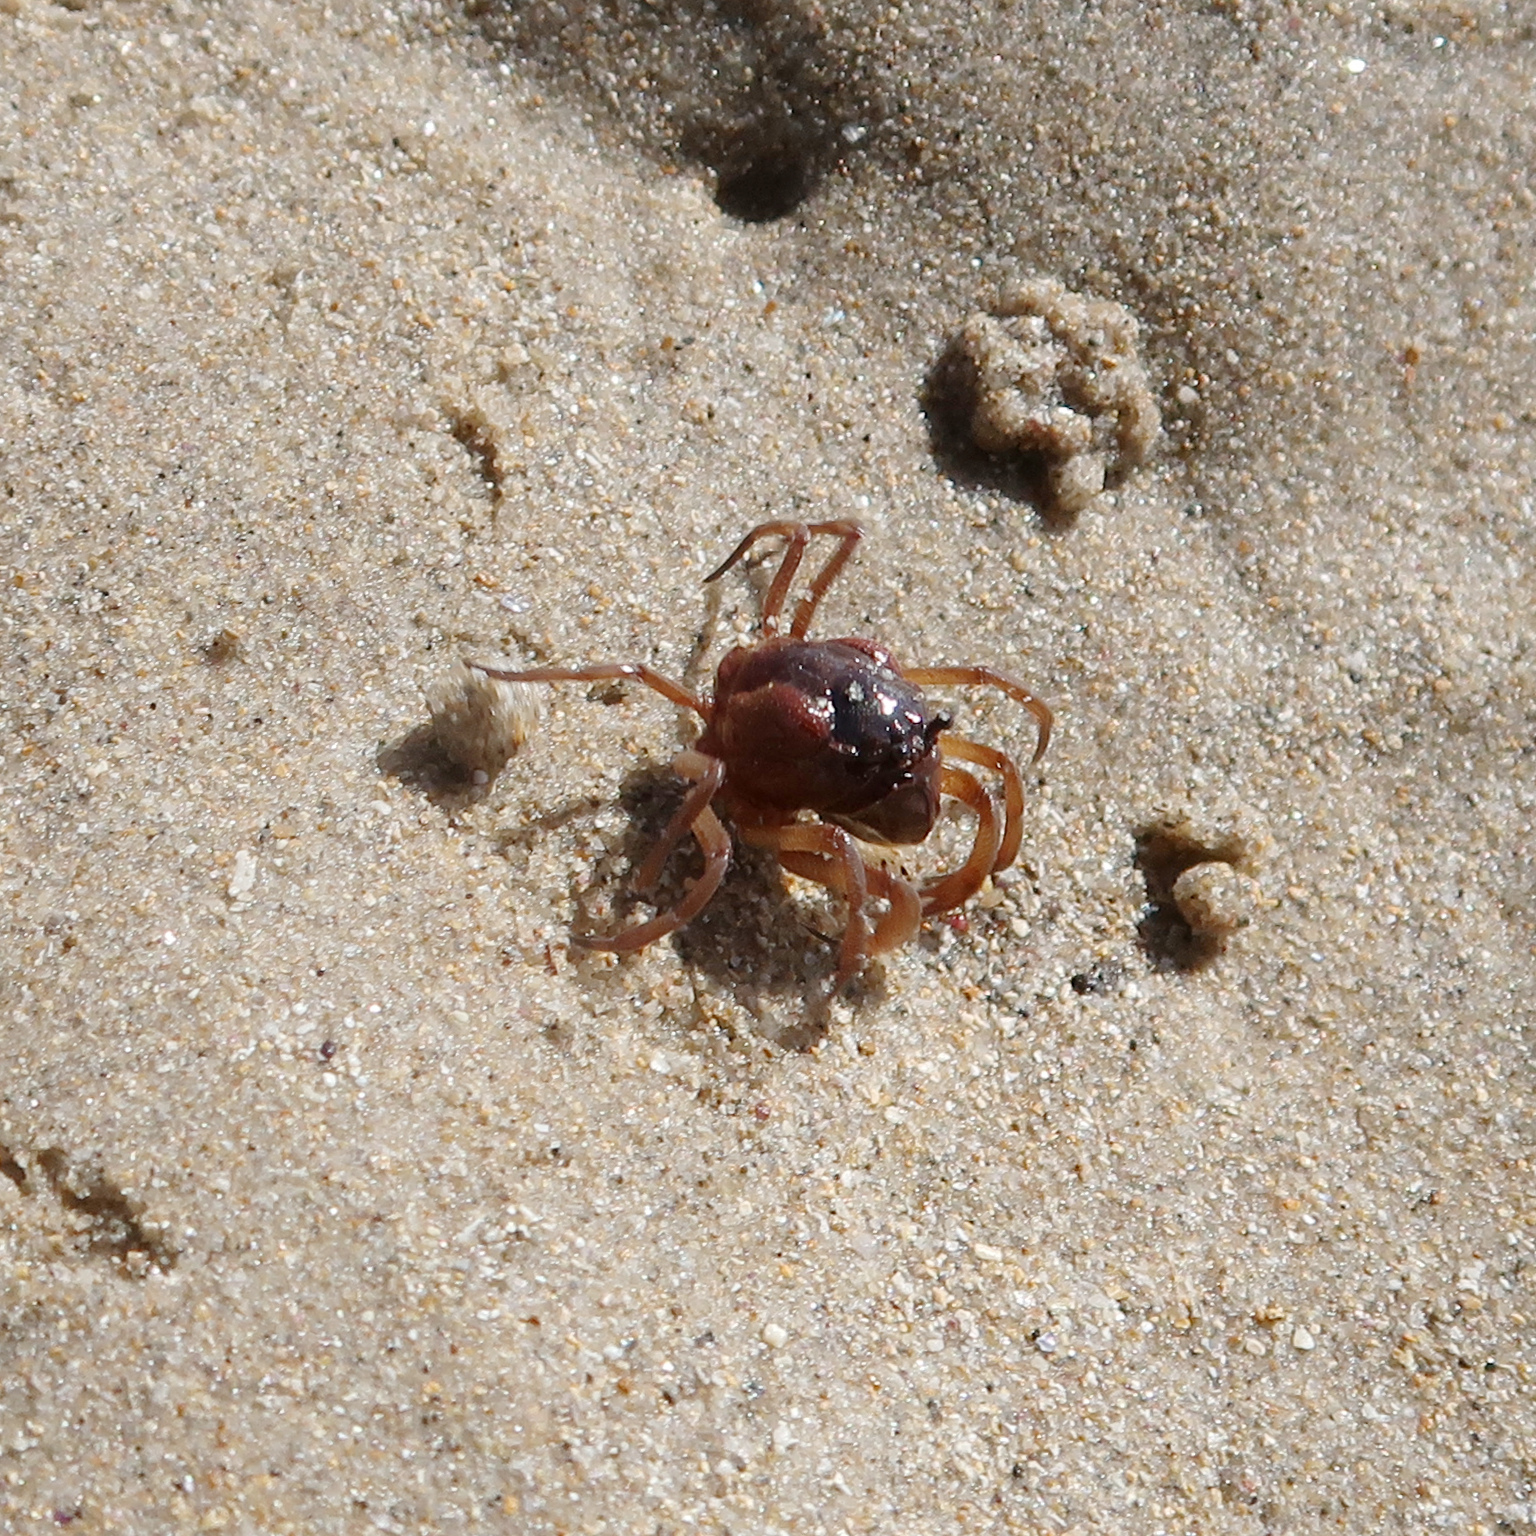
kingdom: Animalia
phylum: Arthropoda
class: Malacostraca
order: Decapoda
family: Mictyridae
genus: Mictyris
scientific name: Mictyris platycheles
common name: Dark blue soldier crab
